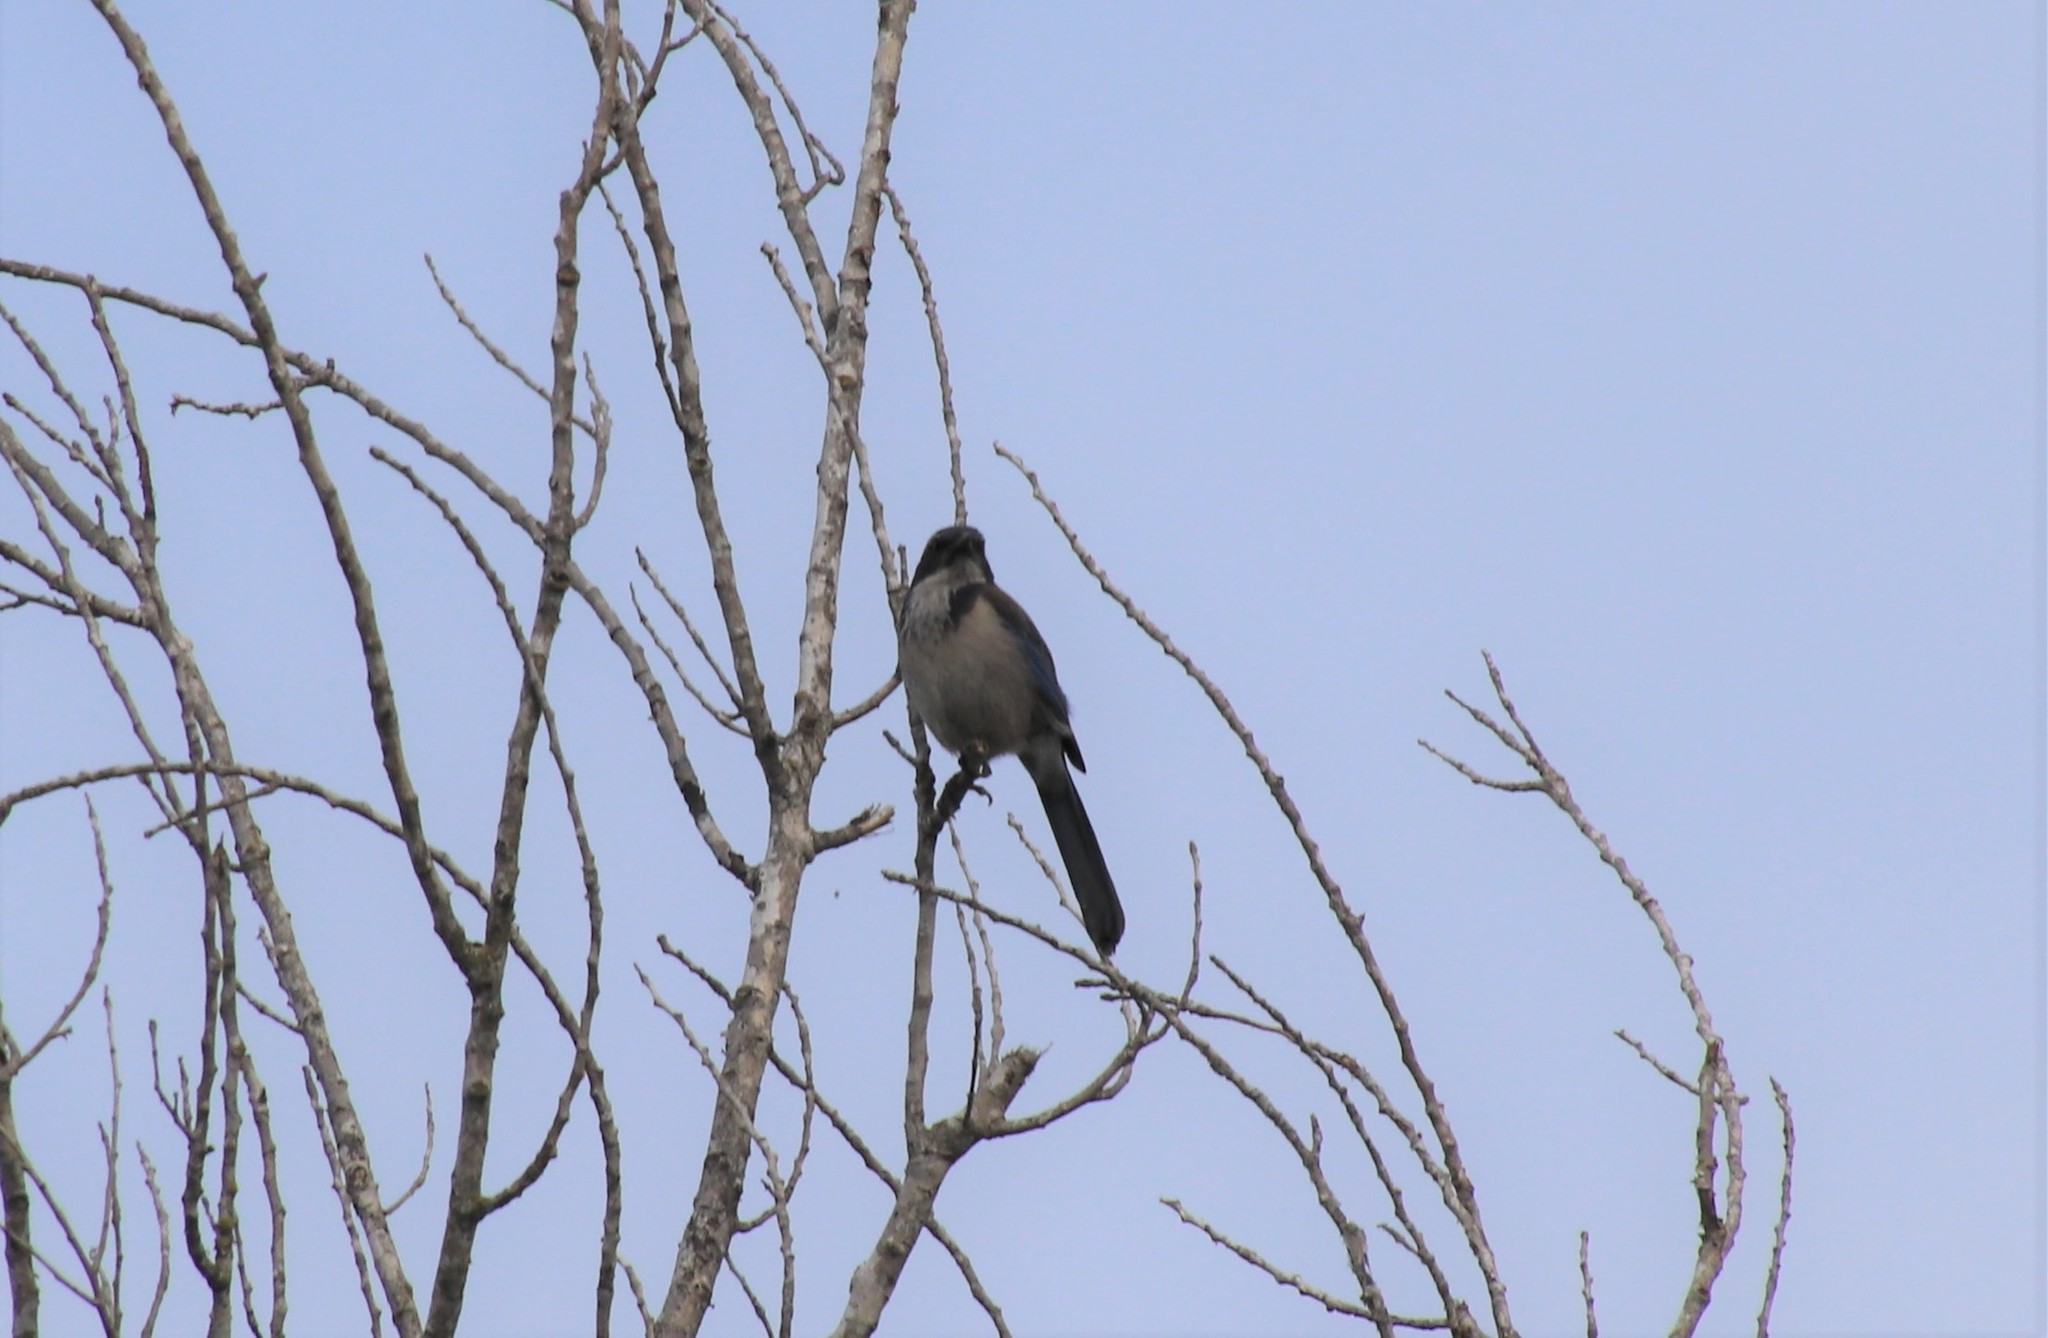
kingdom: Animalia
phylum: Chordata
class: Aves
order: Passeriformes
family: Corvidae
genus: Aphelocoma
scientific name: Aphelocoma californica
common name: California scrub-jay
